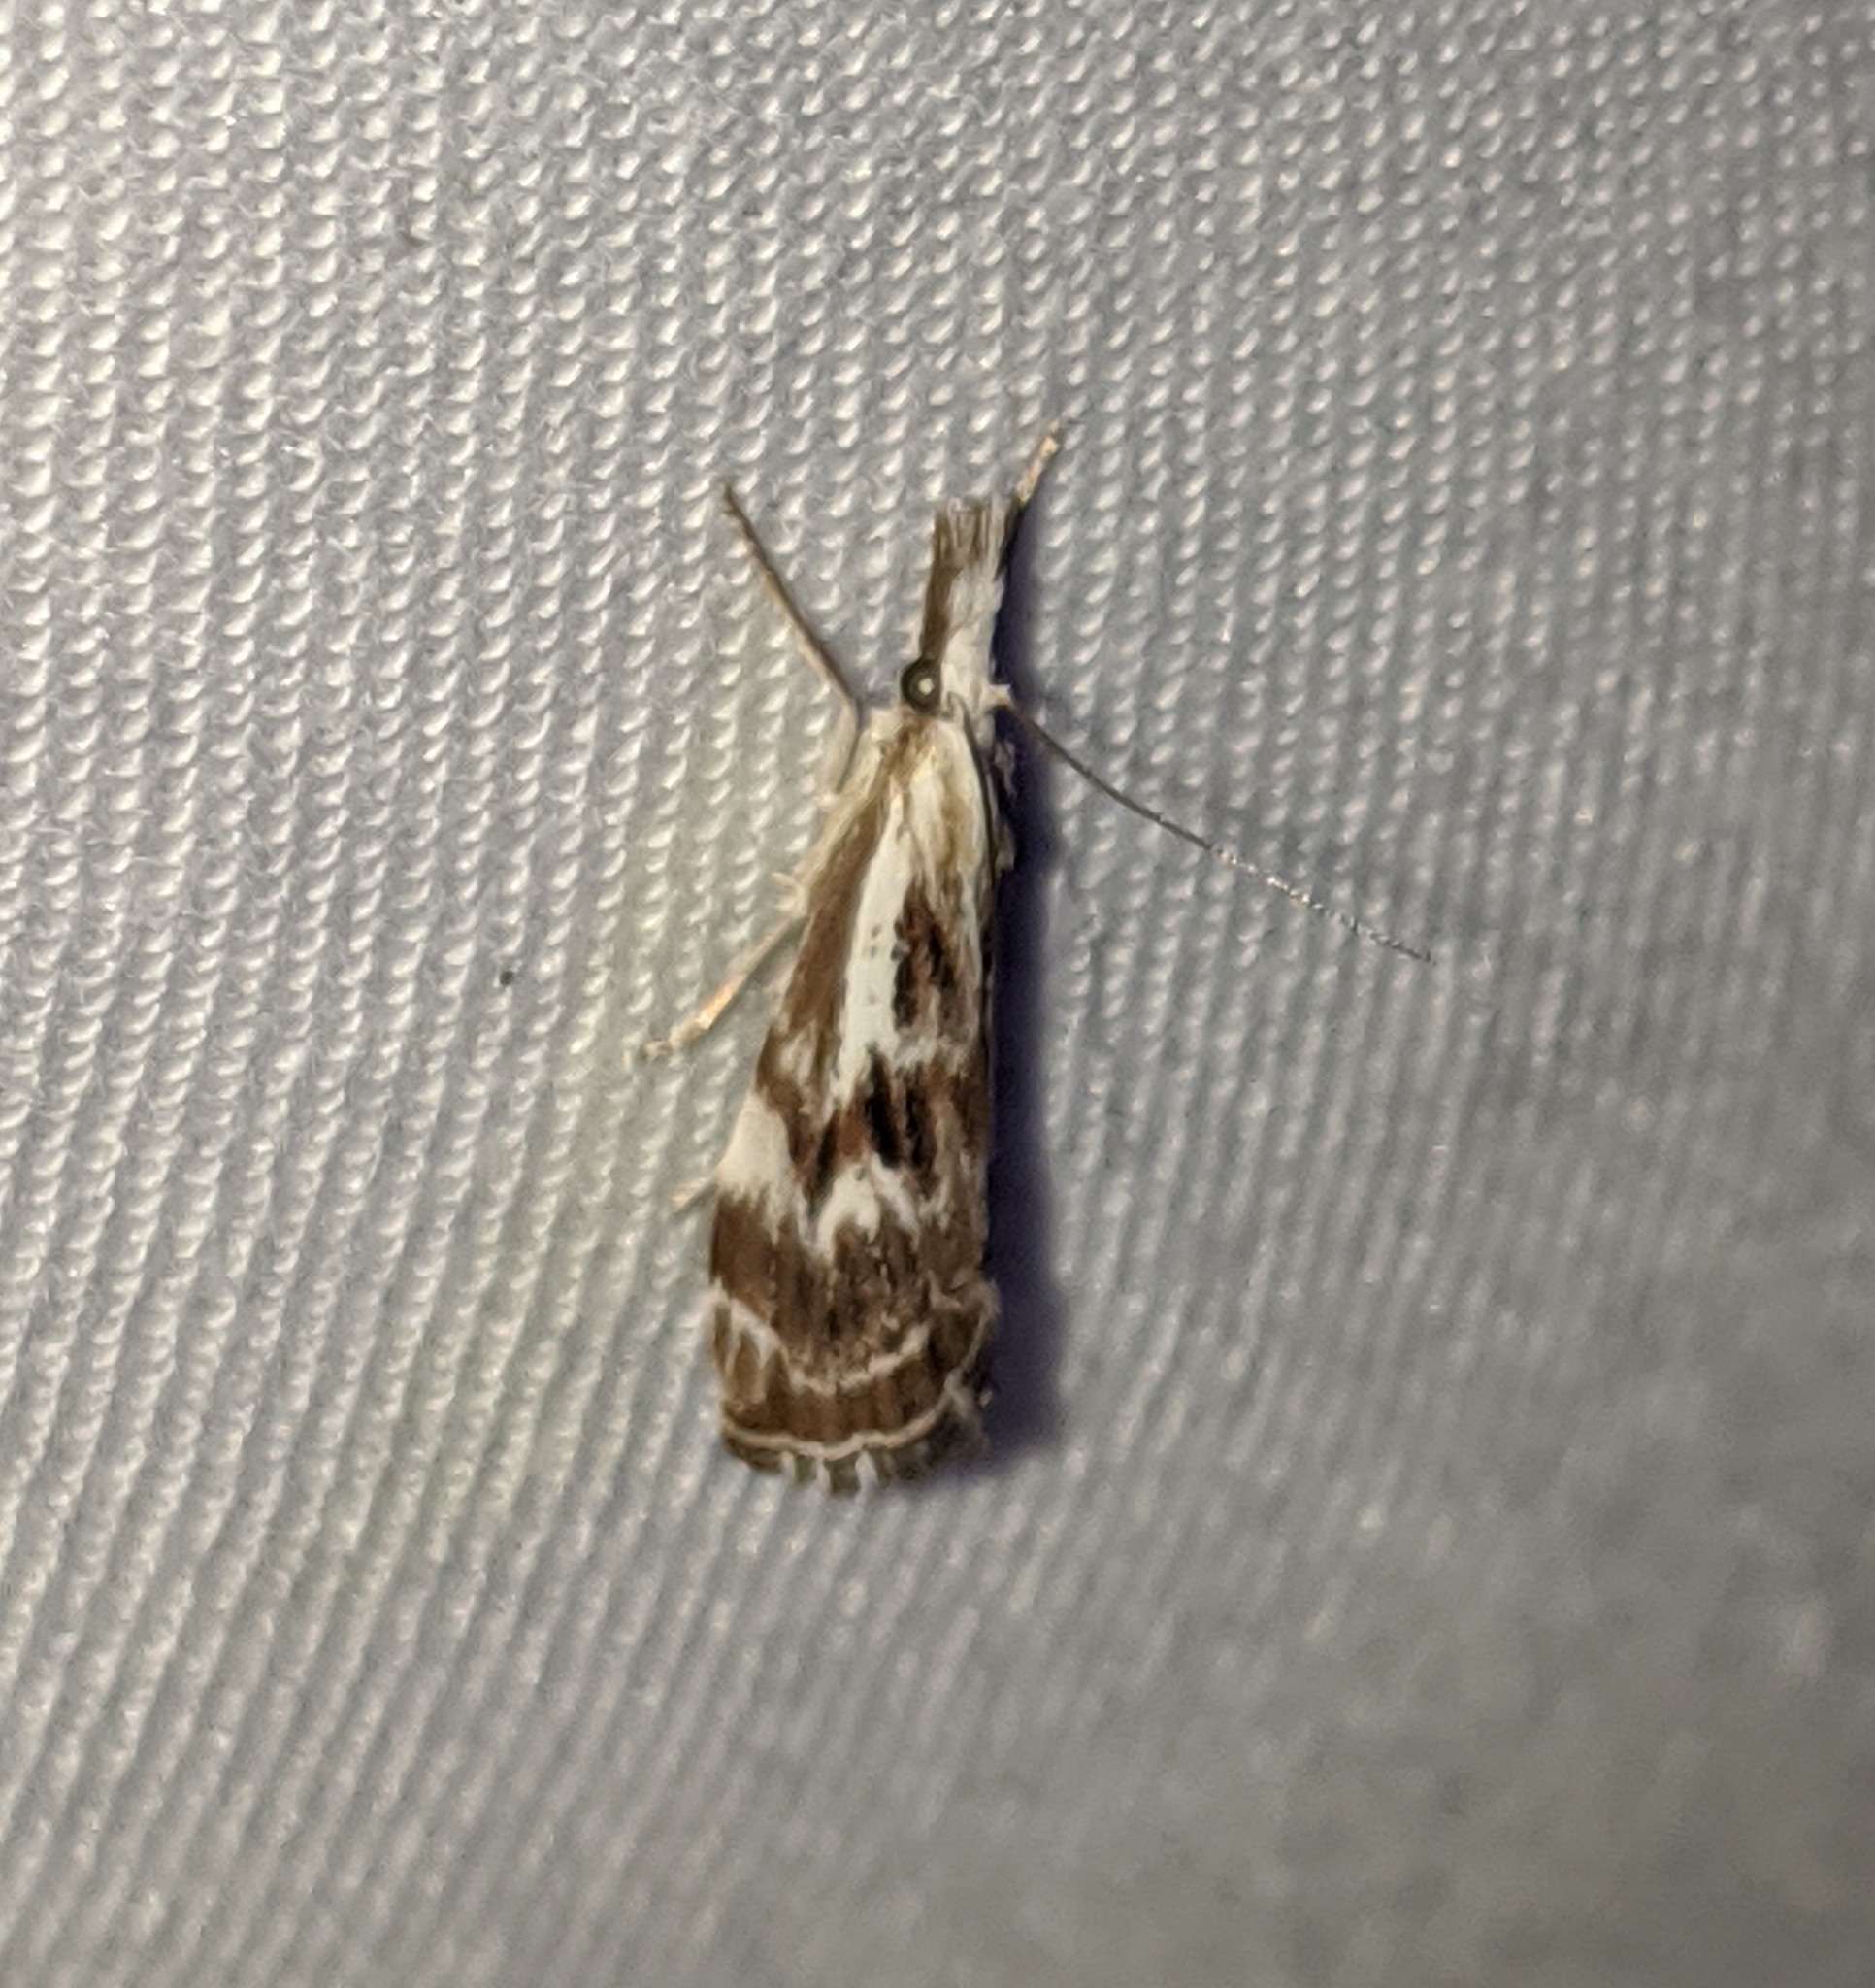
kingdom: Animalia
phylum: Arthropoda
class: Insecta
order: Lepidoptera
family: Crambidae
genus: Catoptria
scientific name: Catoptria oregonicus
